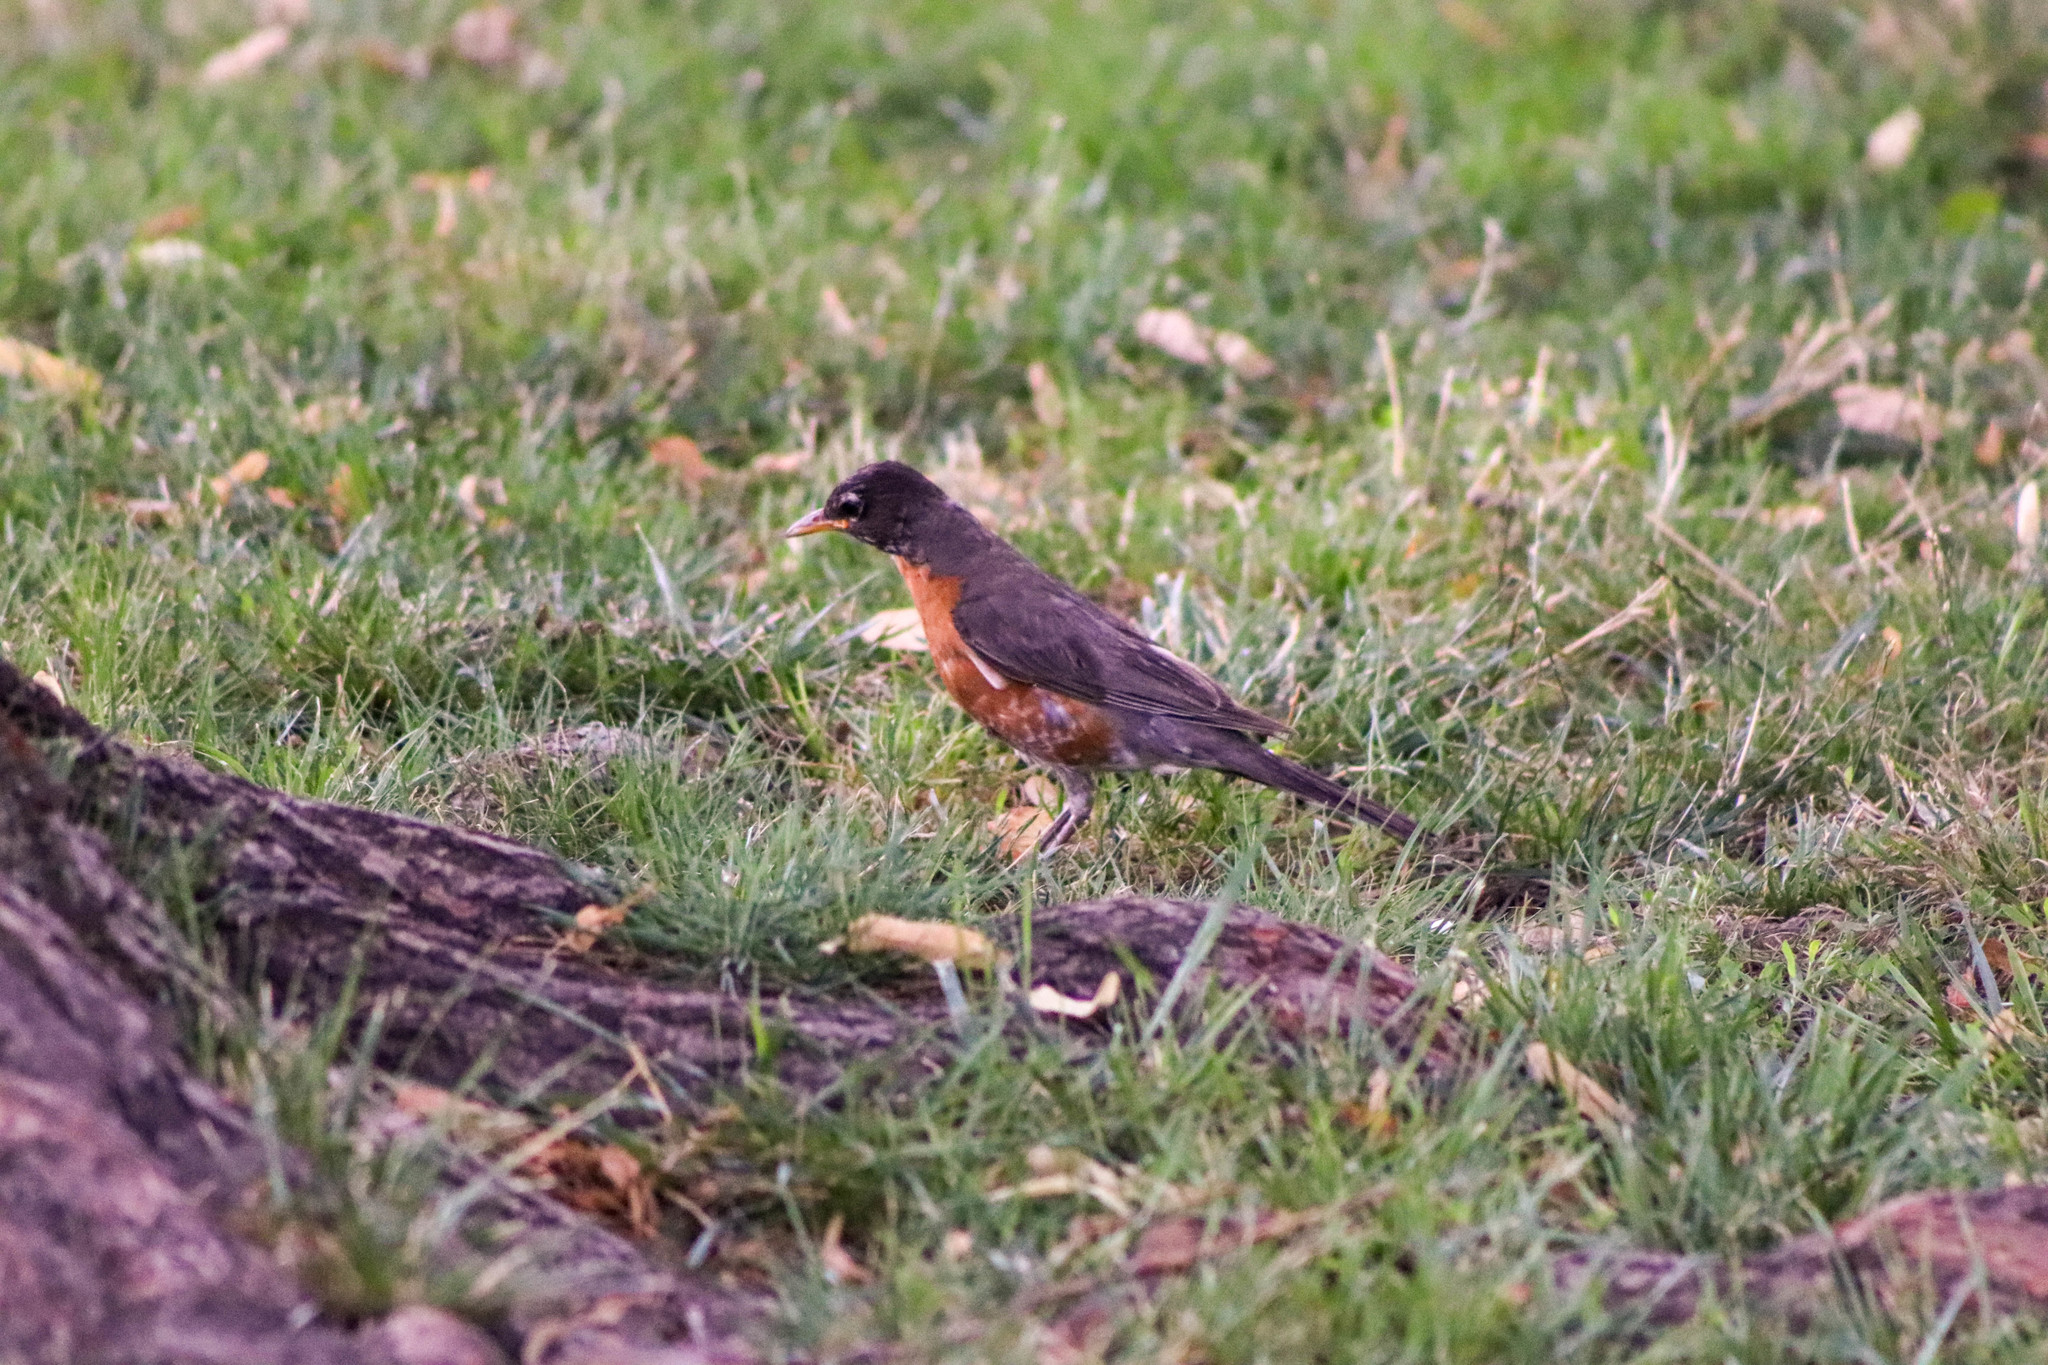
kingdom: Animalia
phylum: Chordata
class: Aves
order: Passeriformes
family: Turdidae
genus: Turdus
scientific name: Turdus migratorius
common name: American robin
